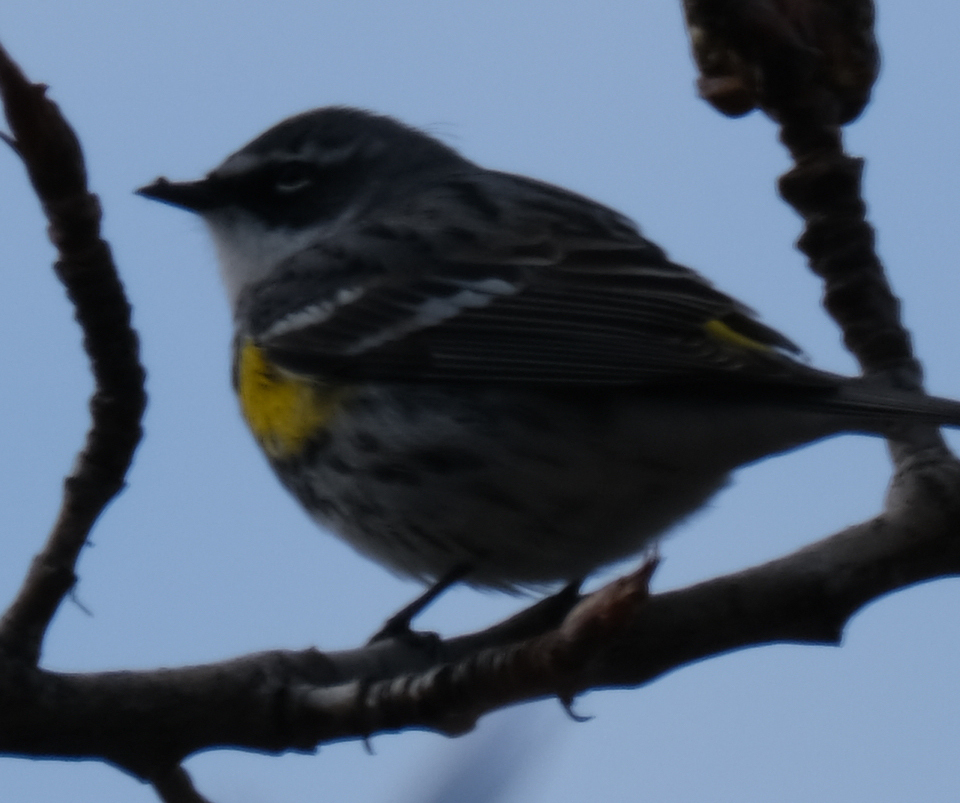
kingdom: Animalia
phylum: Chordata
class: Aves
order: Passeriformes
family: Parulidae
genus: Setophaga
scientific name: Setophaga coronata
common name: Myrtle warbler
